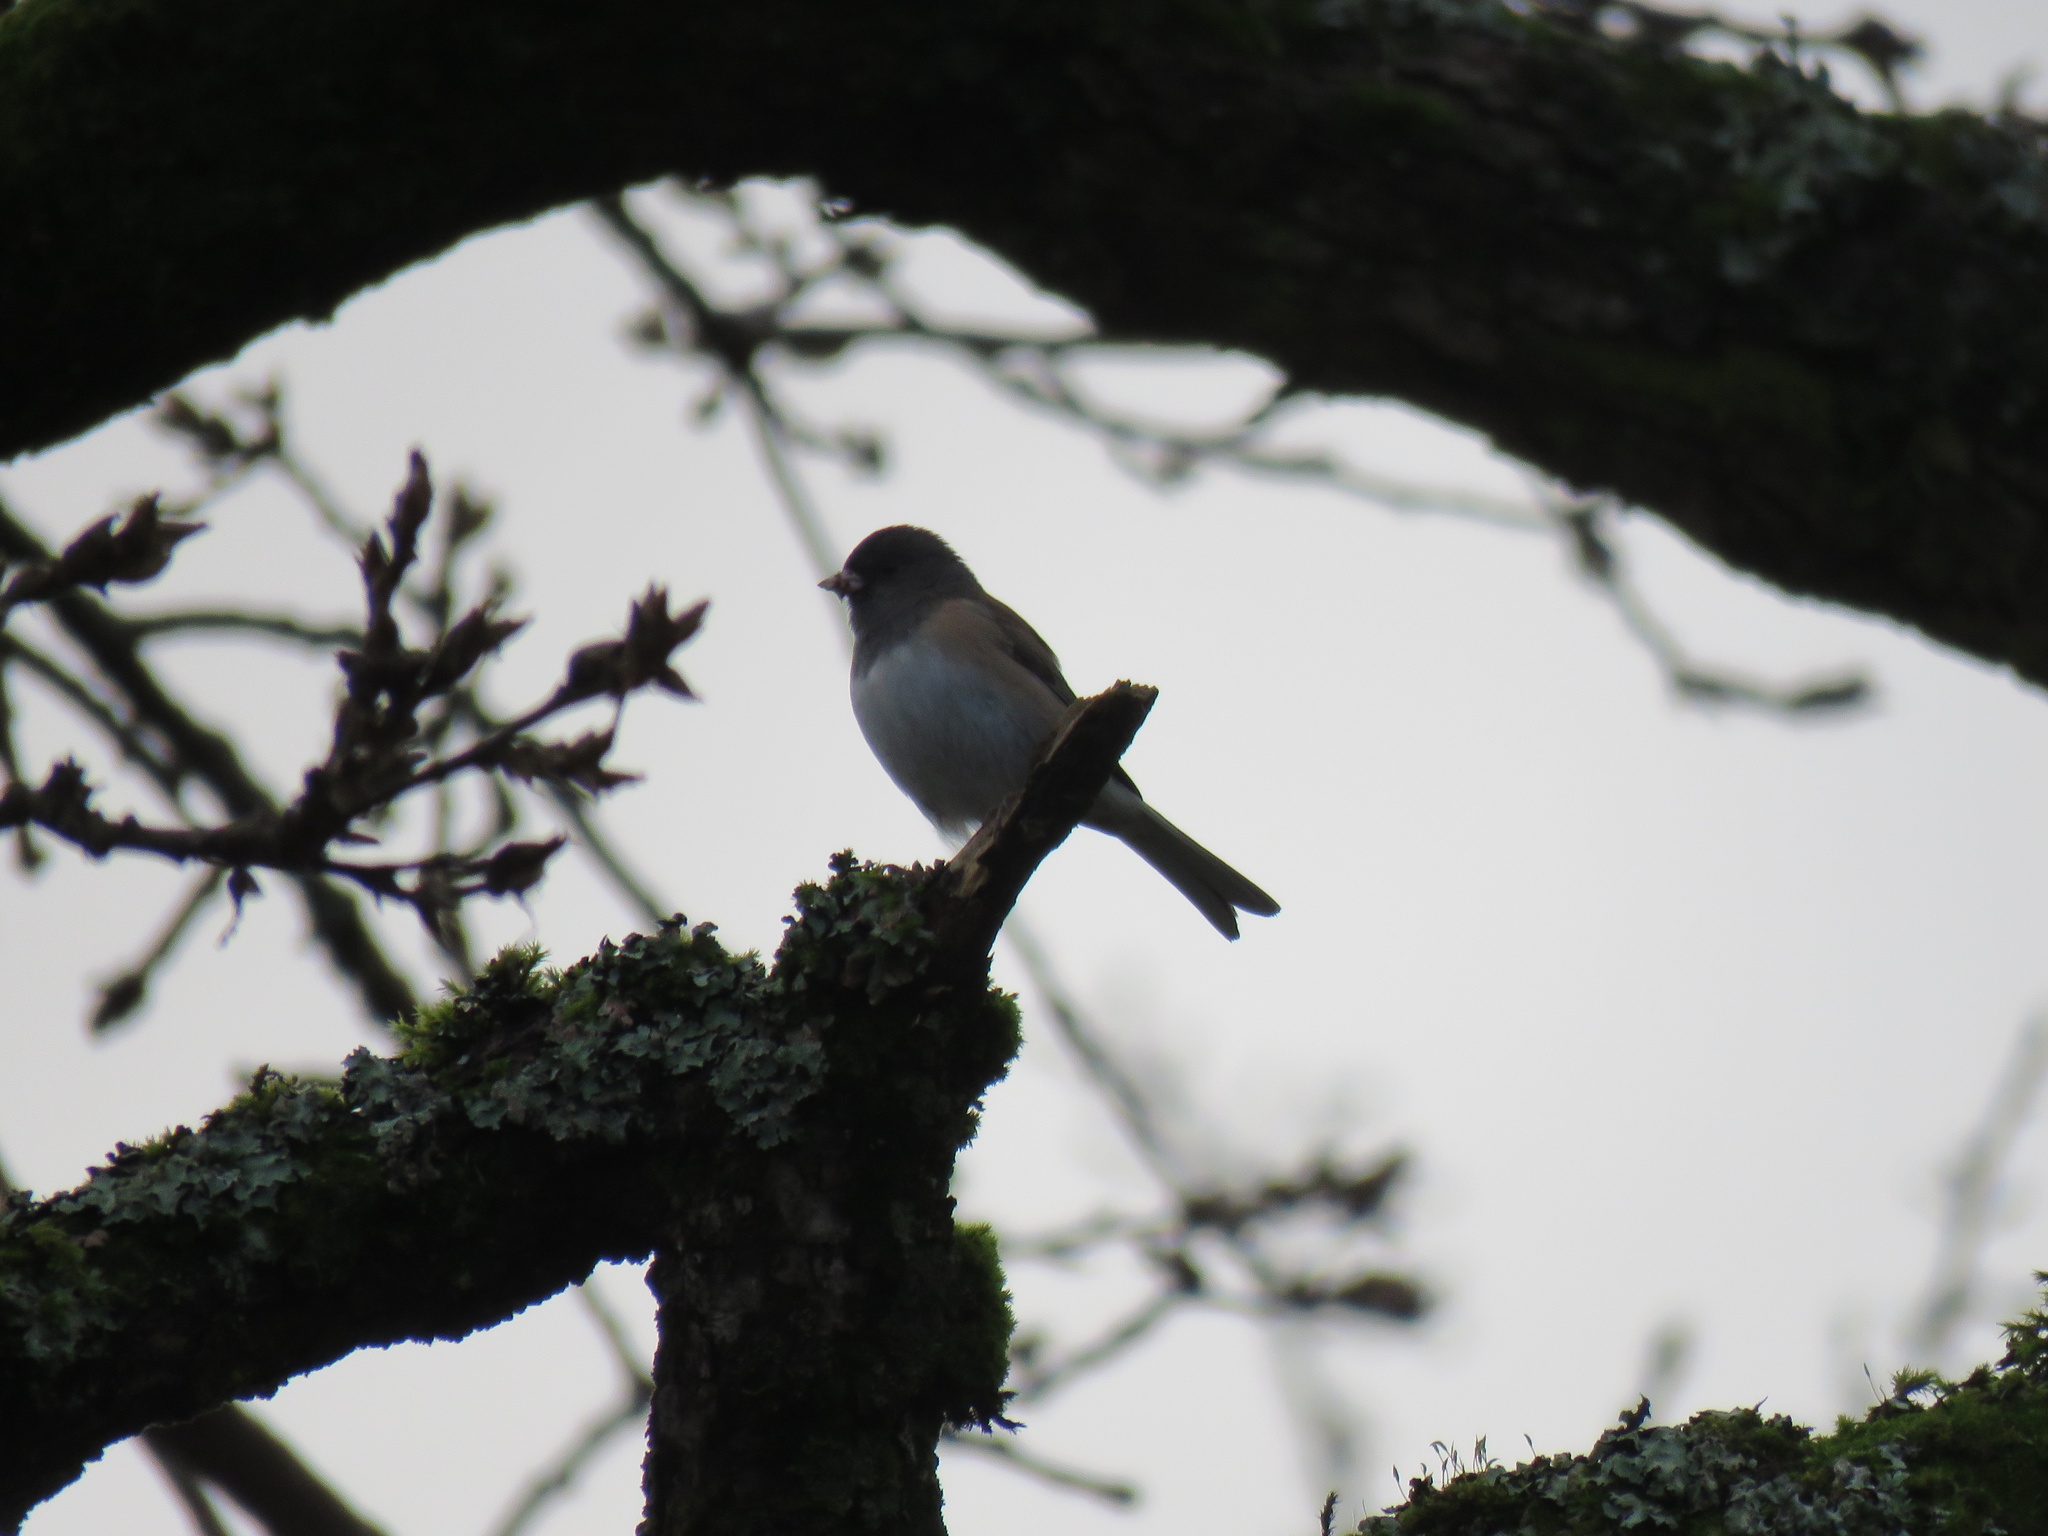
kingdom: Animalia
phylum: Chordata
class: Aves
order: Passeriformes
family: Passerellidae
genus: Junco
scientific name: Junco hyemalis
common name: Dark-eyed junco
